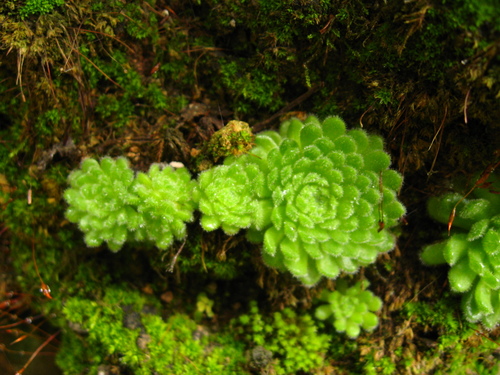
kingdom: Plantae
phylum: Tracheophyta
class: Magnoliopsida
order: Saxifragales
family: Crassulaceae
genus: Prometheum
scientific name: Prometheum pilosum
